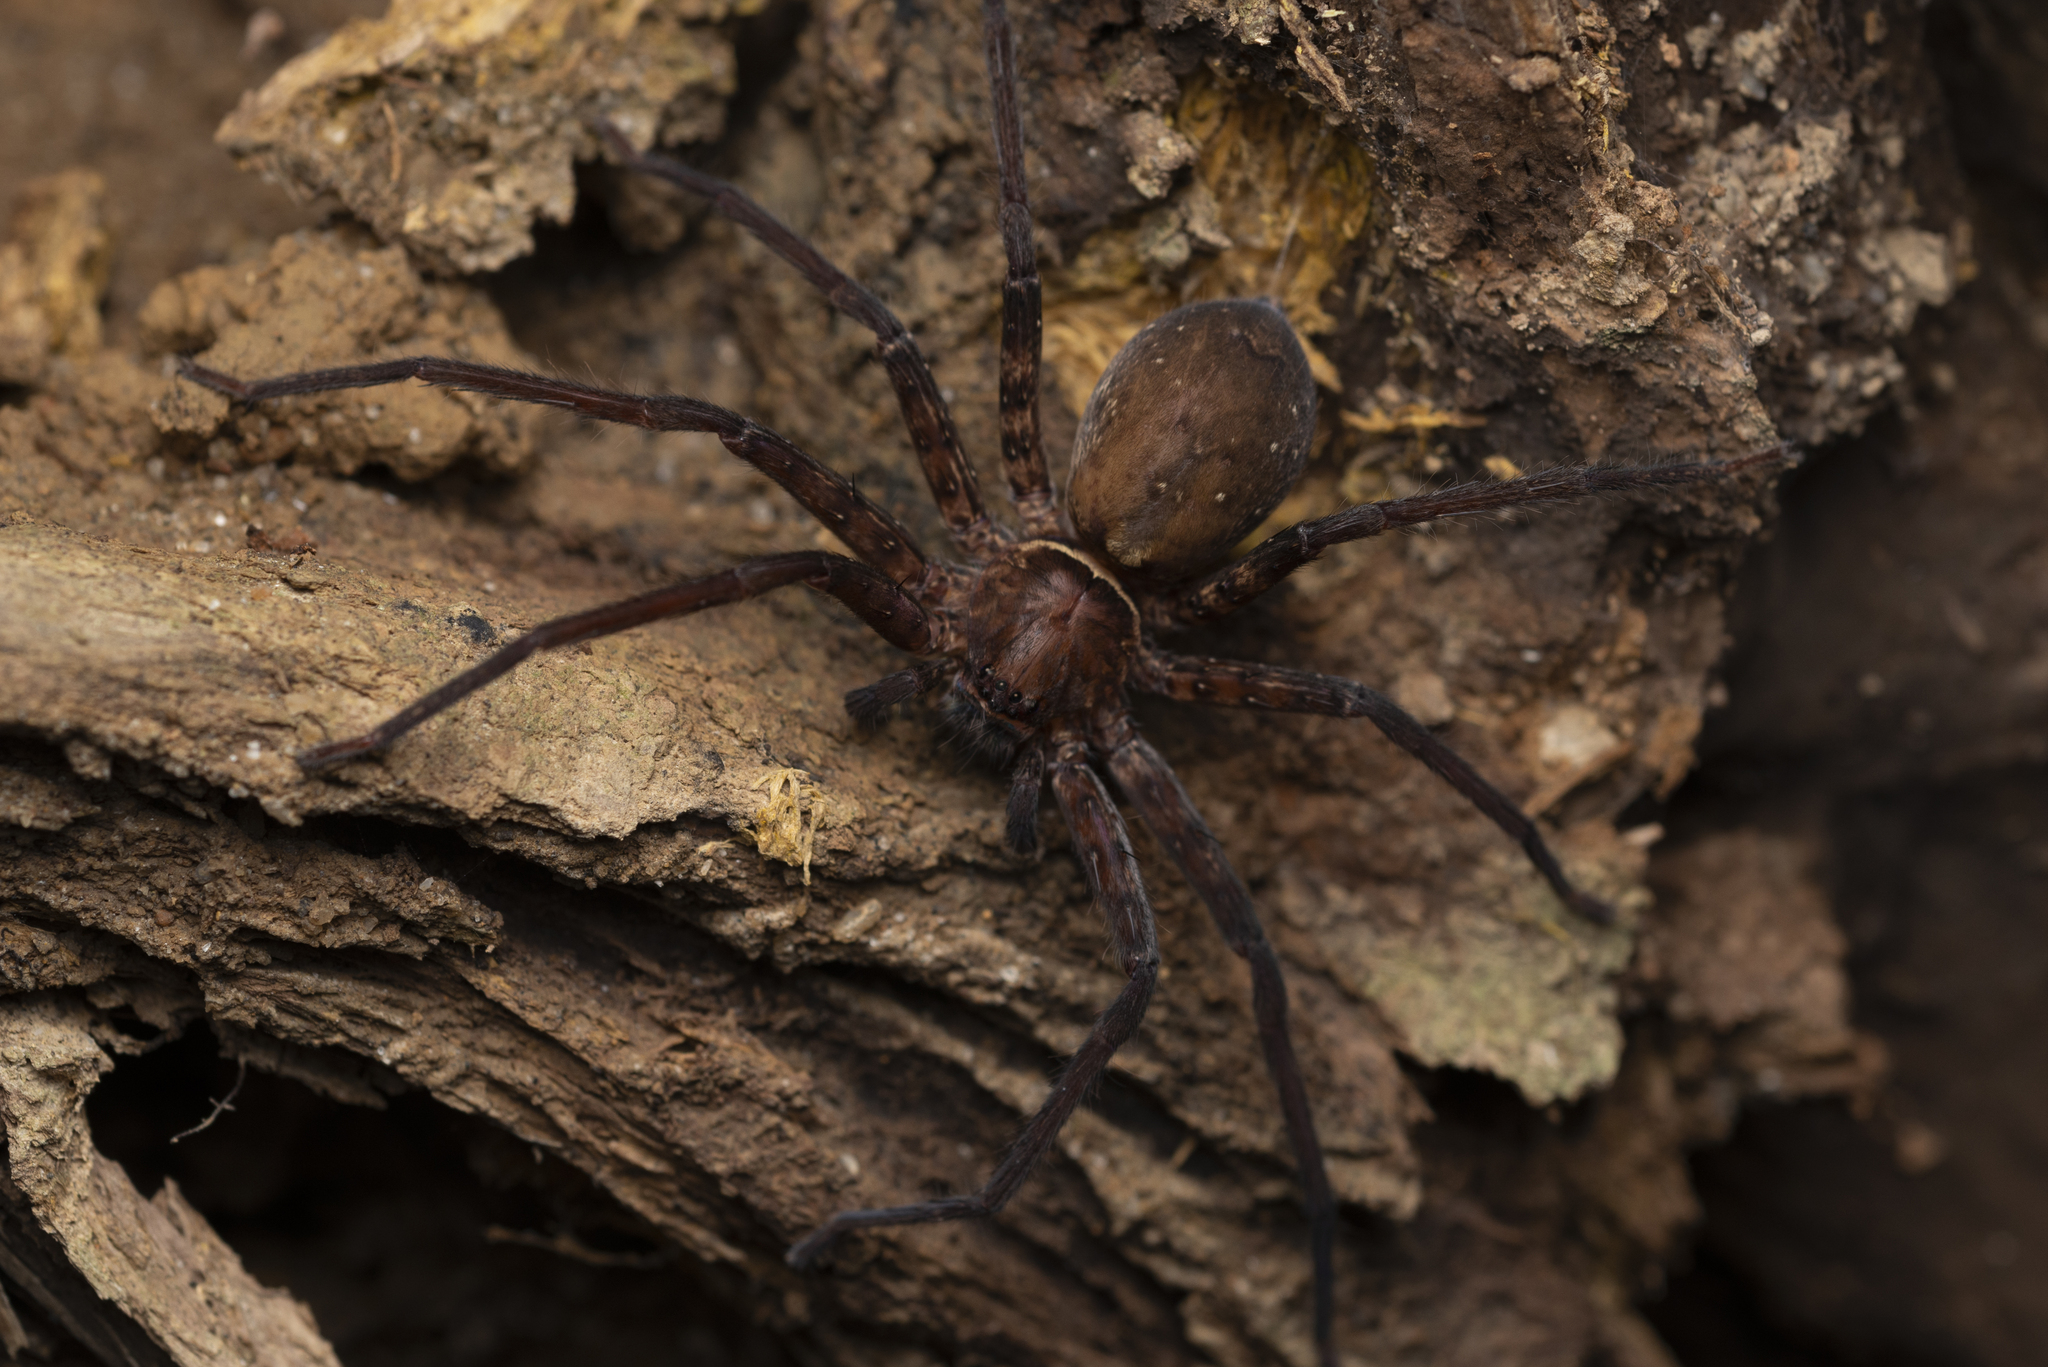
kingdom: Animalia
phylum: Arthropoda
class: Arachnida
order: Araneae
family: Sparassidae
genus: Heteropoda
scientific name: Heteropoda amphora
